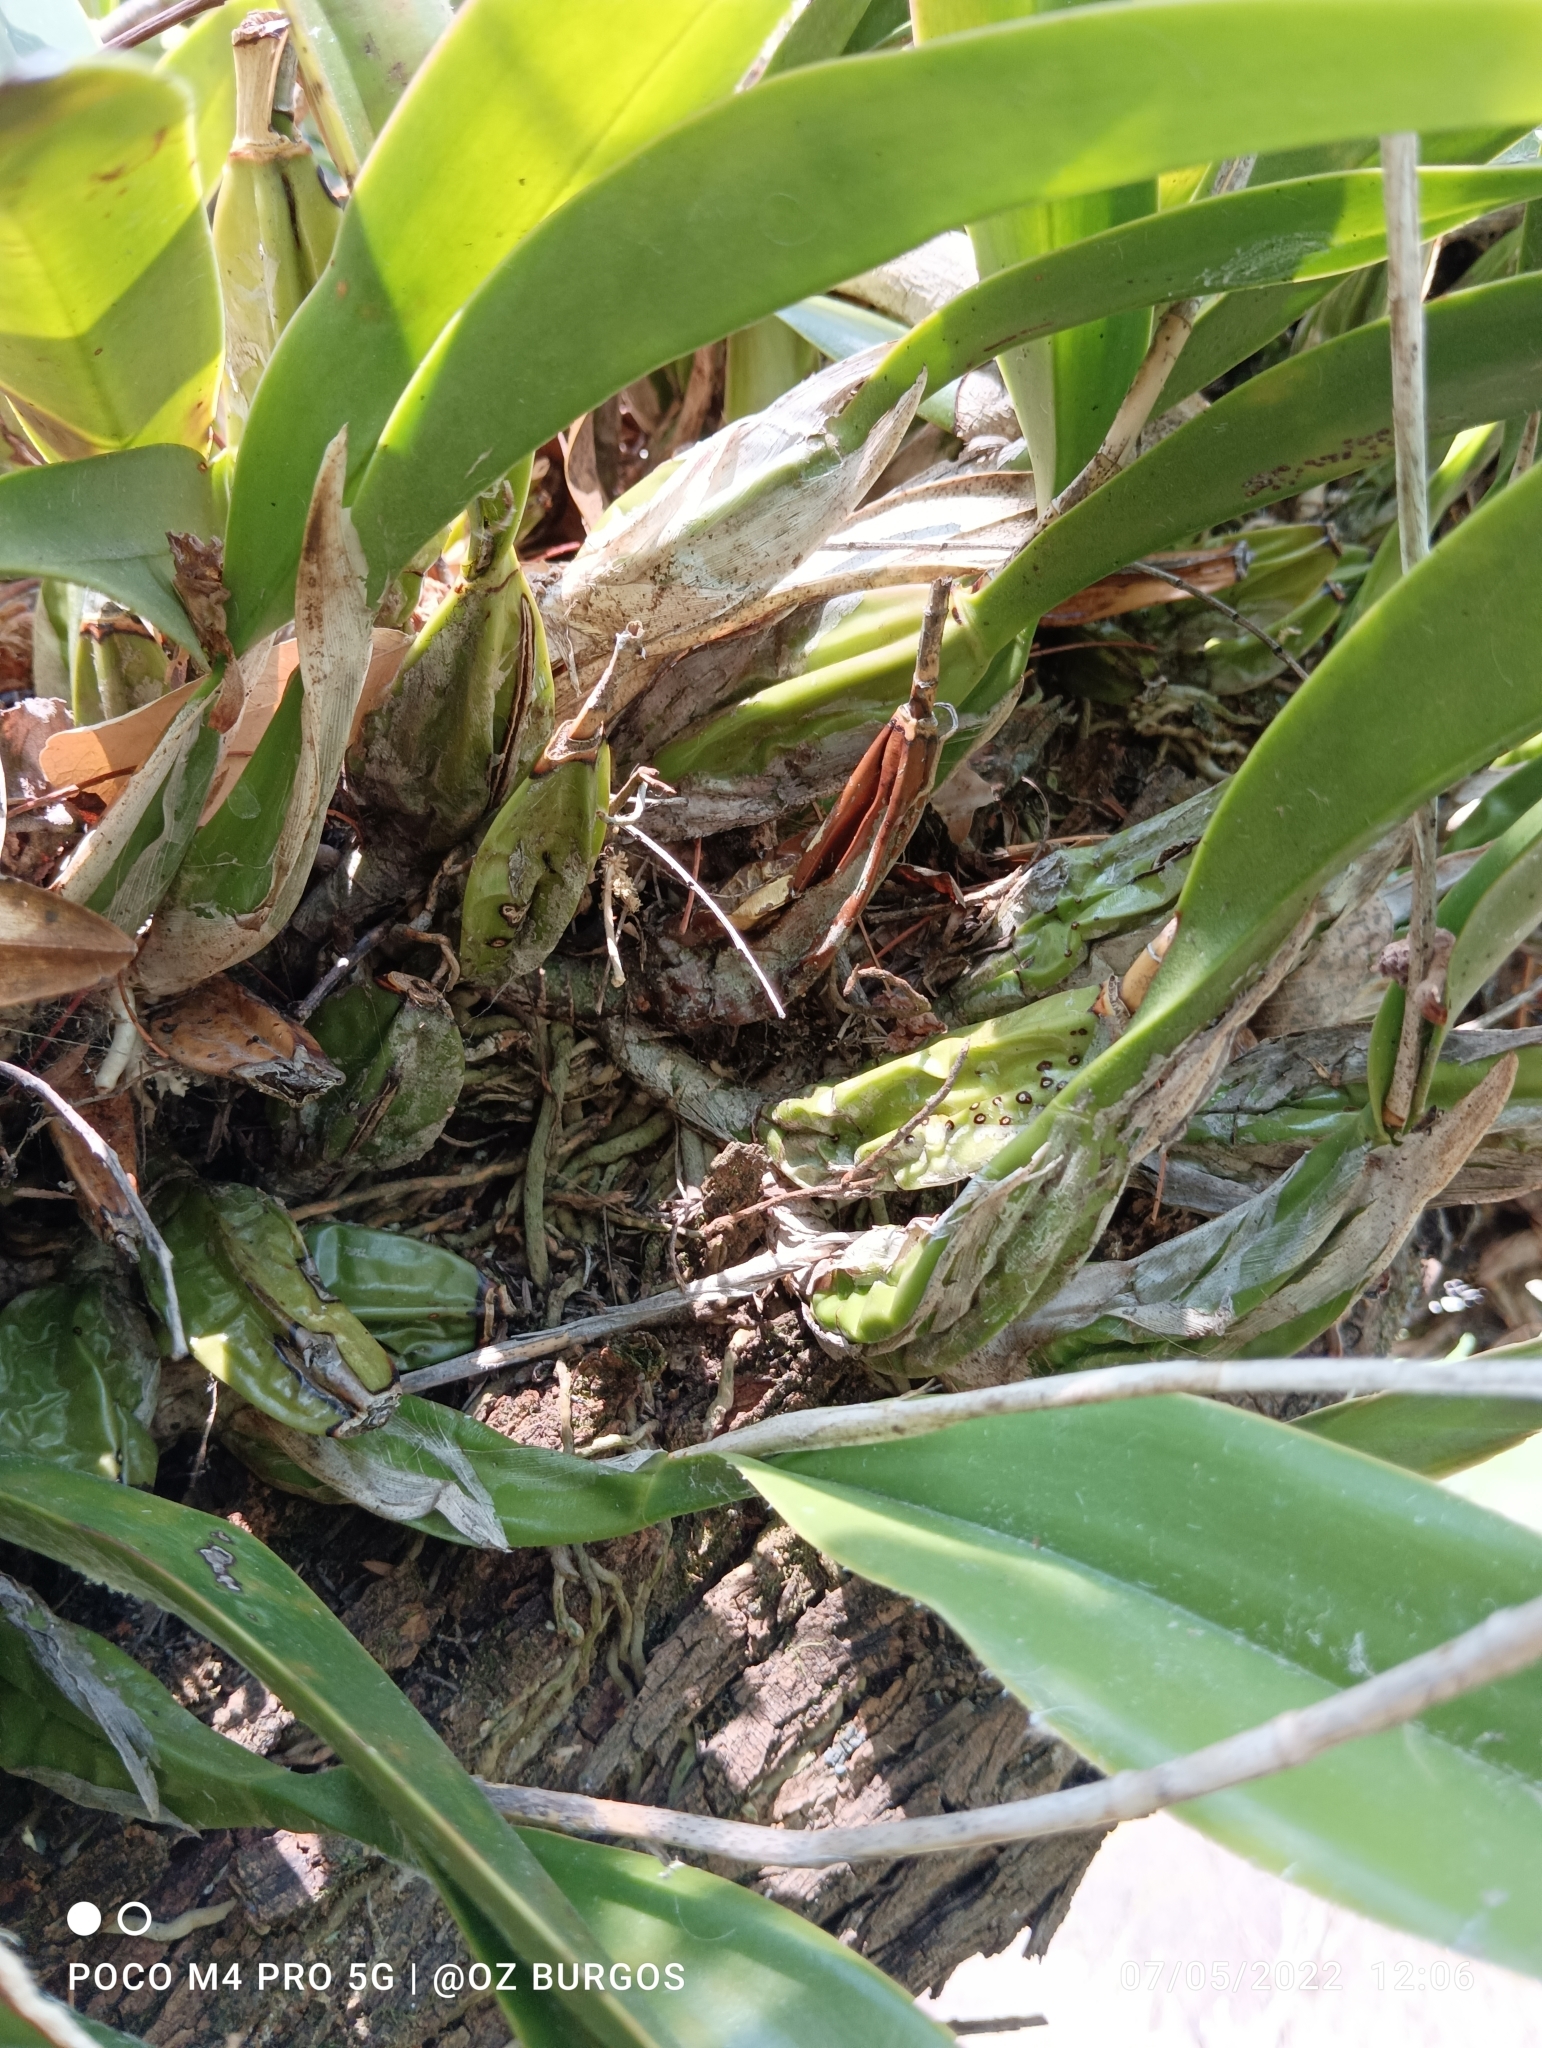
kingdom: Plantae
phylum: Tracheophyta
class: Liliopsida
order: Asparagales
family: Orchidaceae
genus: Laelia
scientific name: Laelia anceps
